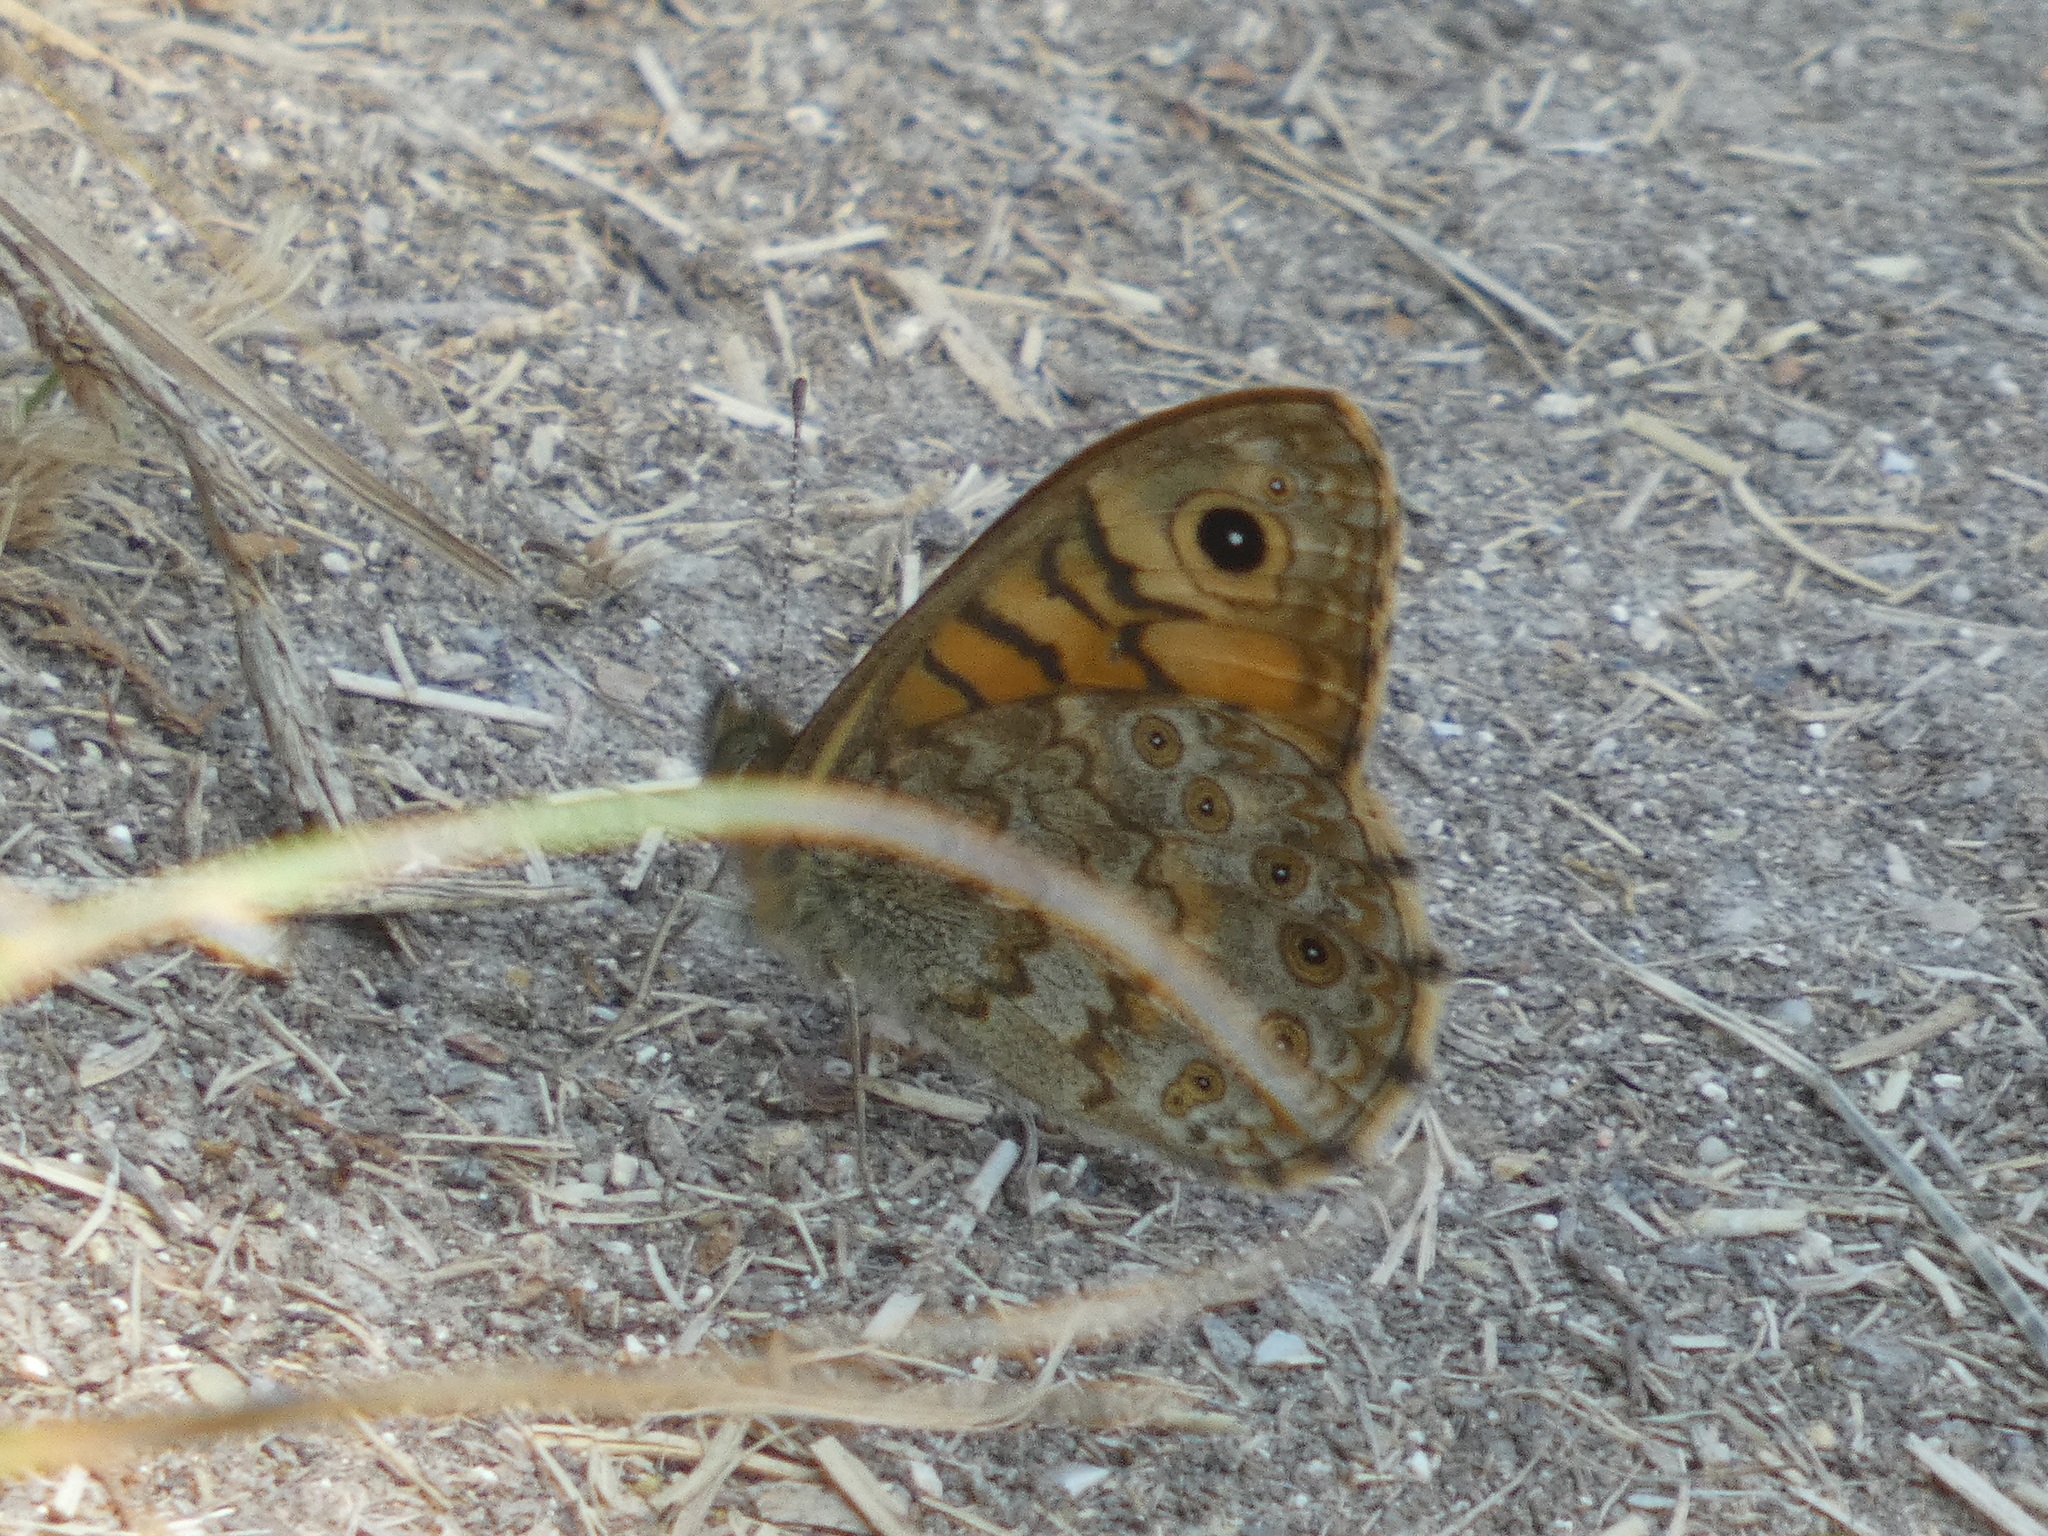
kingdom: Animalia
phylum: Arthropoda
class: Insecta
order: Lepidoptera
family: Nymphalidae
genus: Pararge
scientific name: Pararge Lasiommata megera
